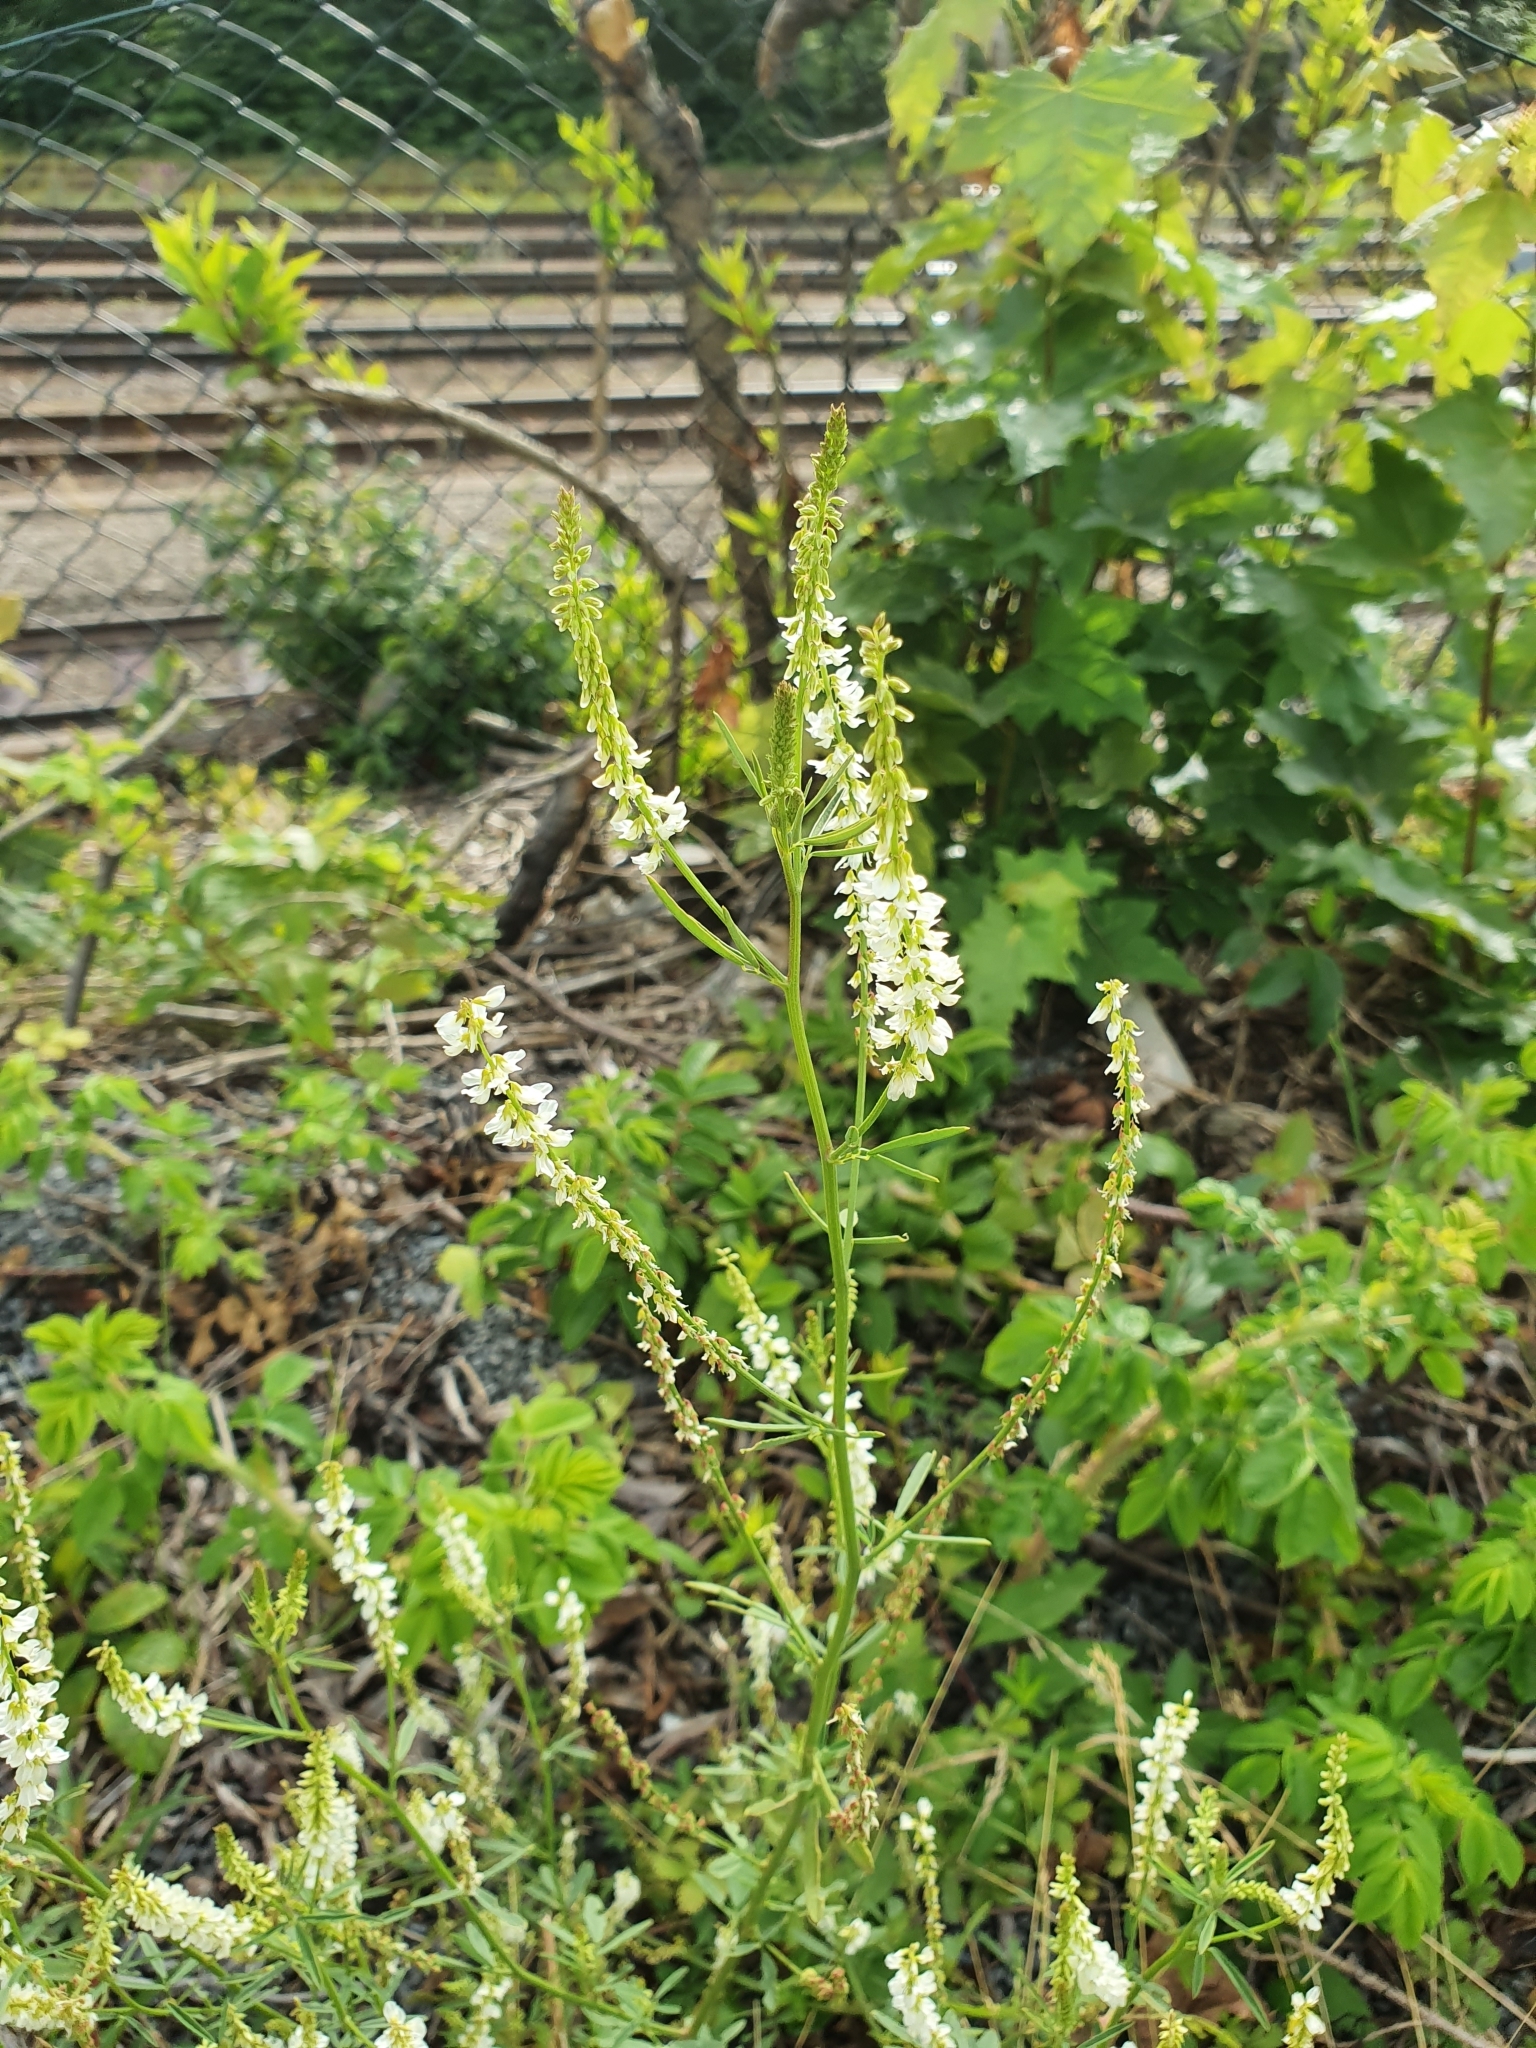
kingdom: Plantae
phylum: Tracheophyta
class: Magnoliopsida
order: Fabales
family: Fabaceae
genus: Melilotus
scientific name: Melilotus albus
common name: White melilot
